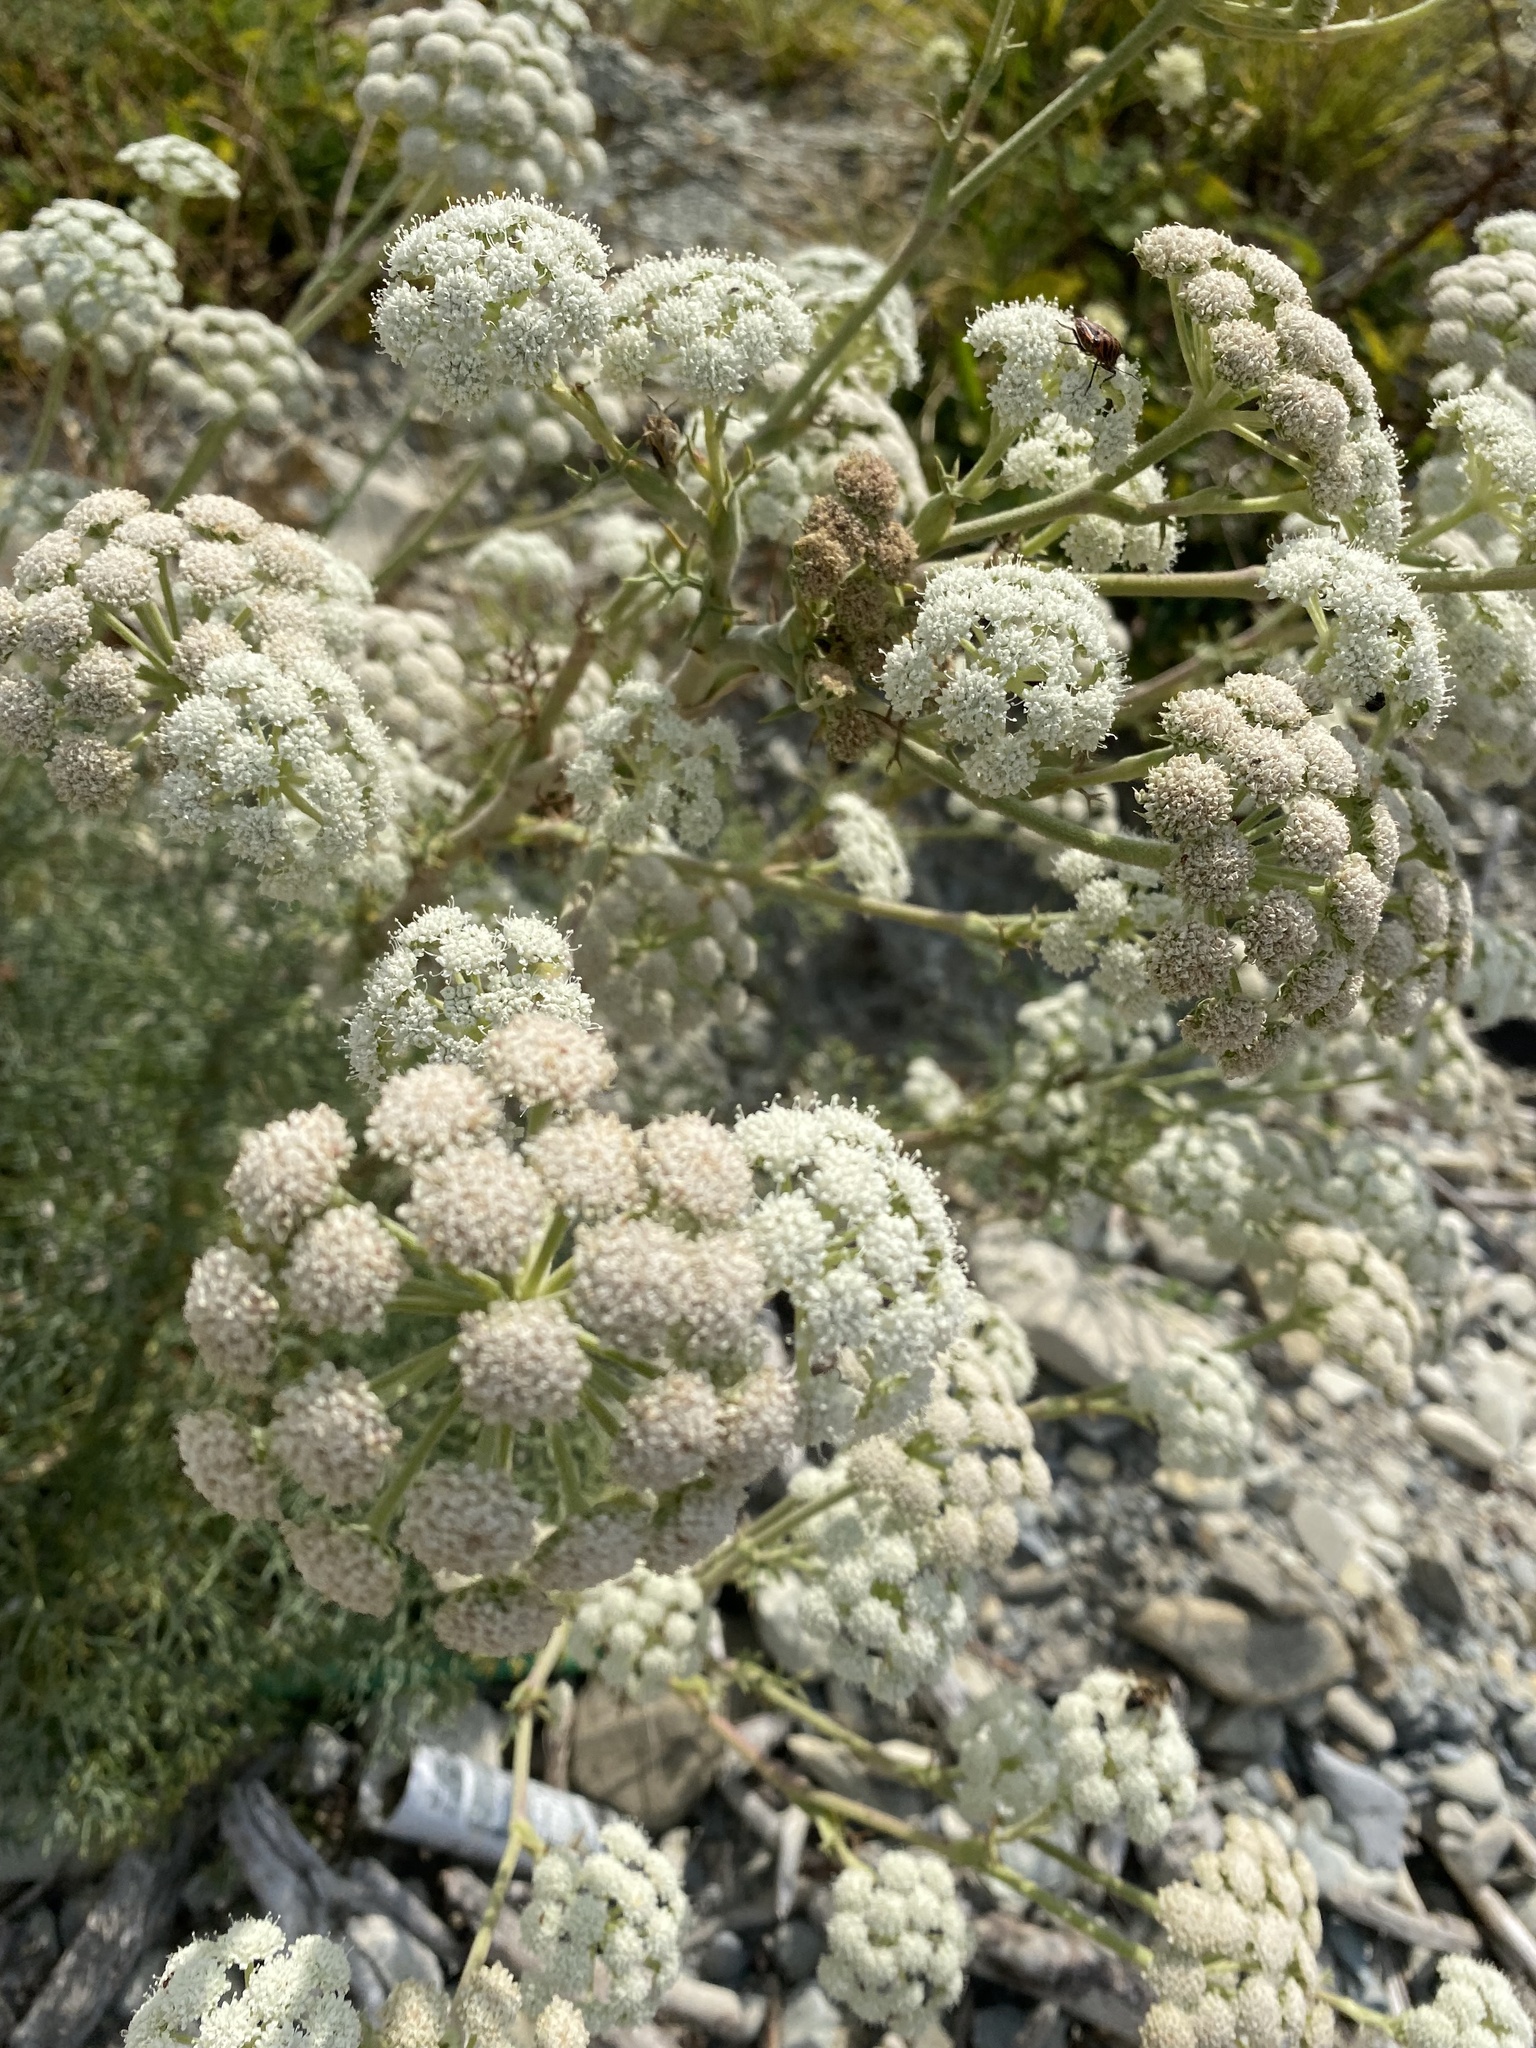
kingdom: Plantae
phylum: Tracheophyta
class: Magnoliopsida
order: Apiales
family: Apiaceae
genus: Seseli
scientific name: Seseli ponticum
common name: Pontic seseli
